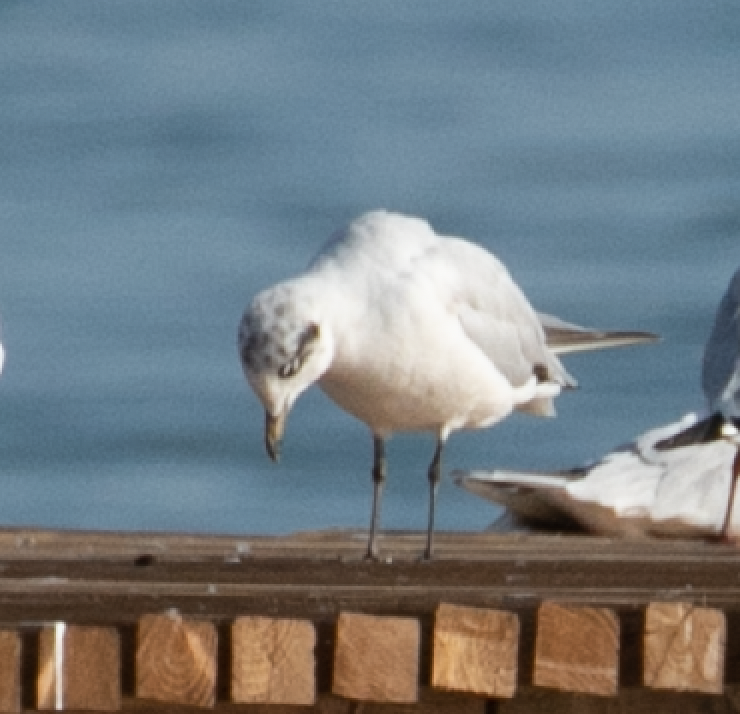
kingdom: Animalia
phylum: Chordata
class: Aves
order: Charadriiformes
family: Laridae
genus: Ichthyaetus
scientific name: Ichthyaetus melanocephalus
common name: Mediterranean gull
